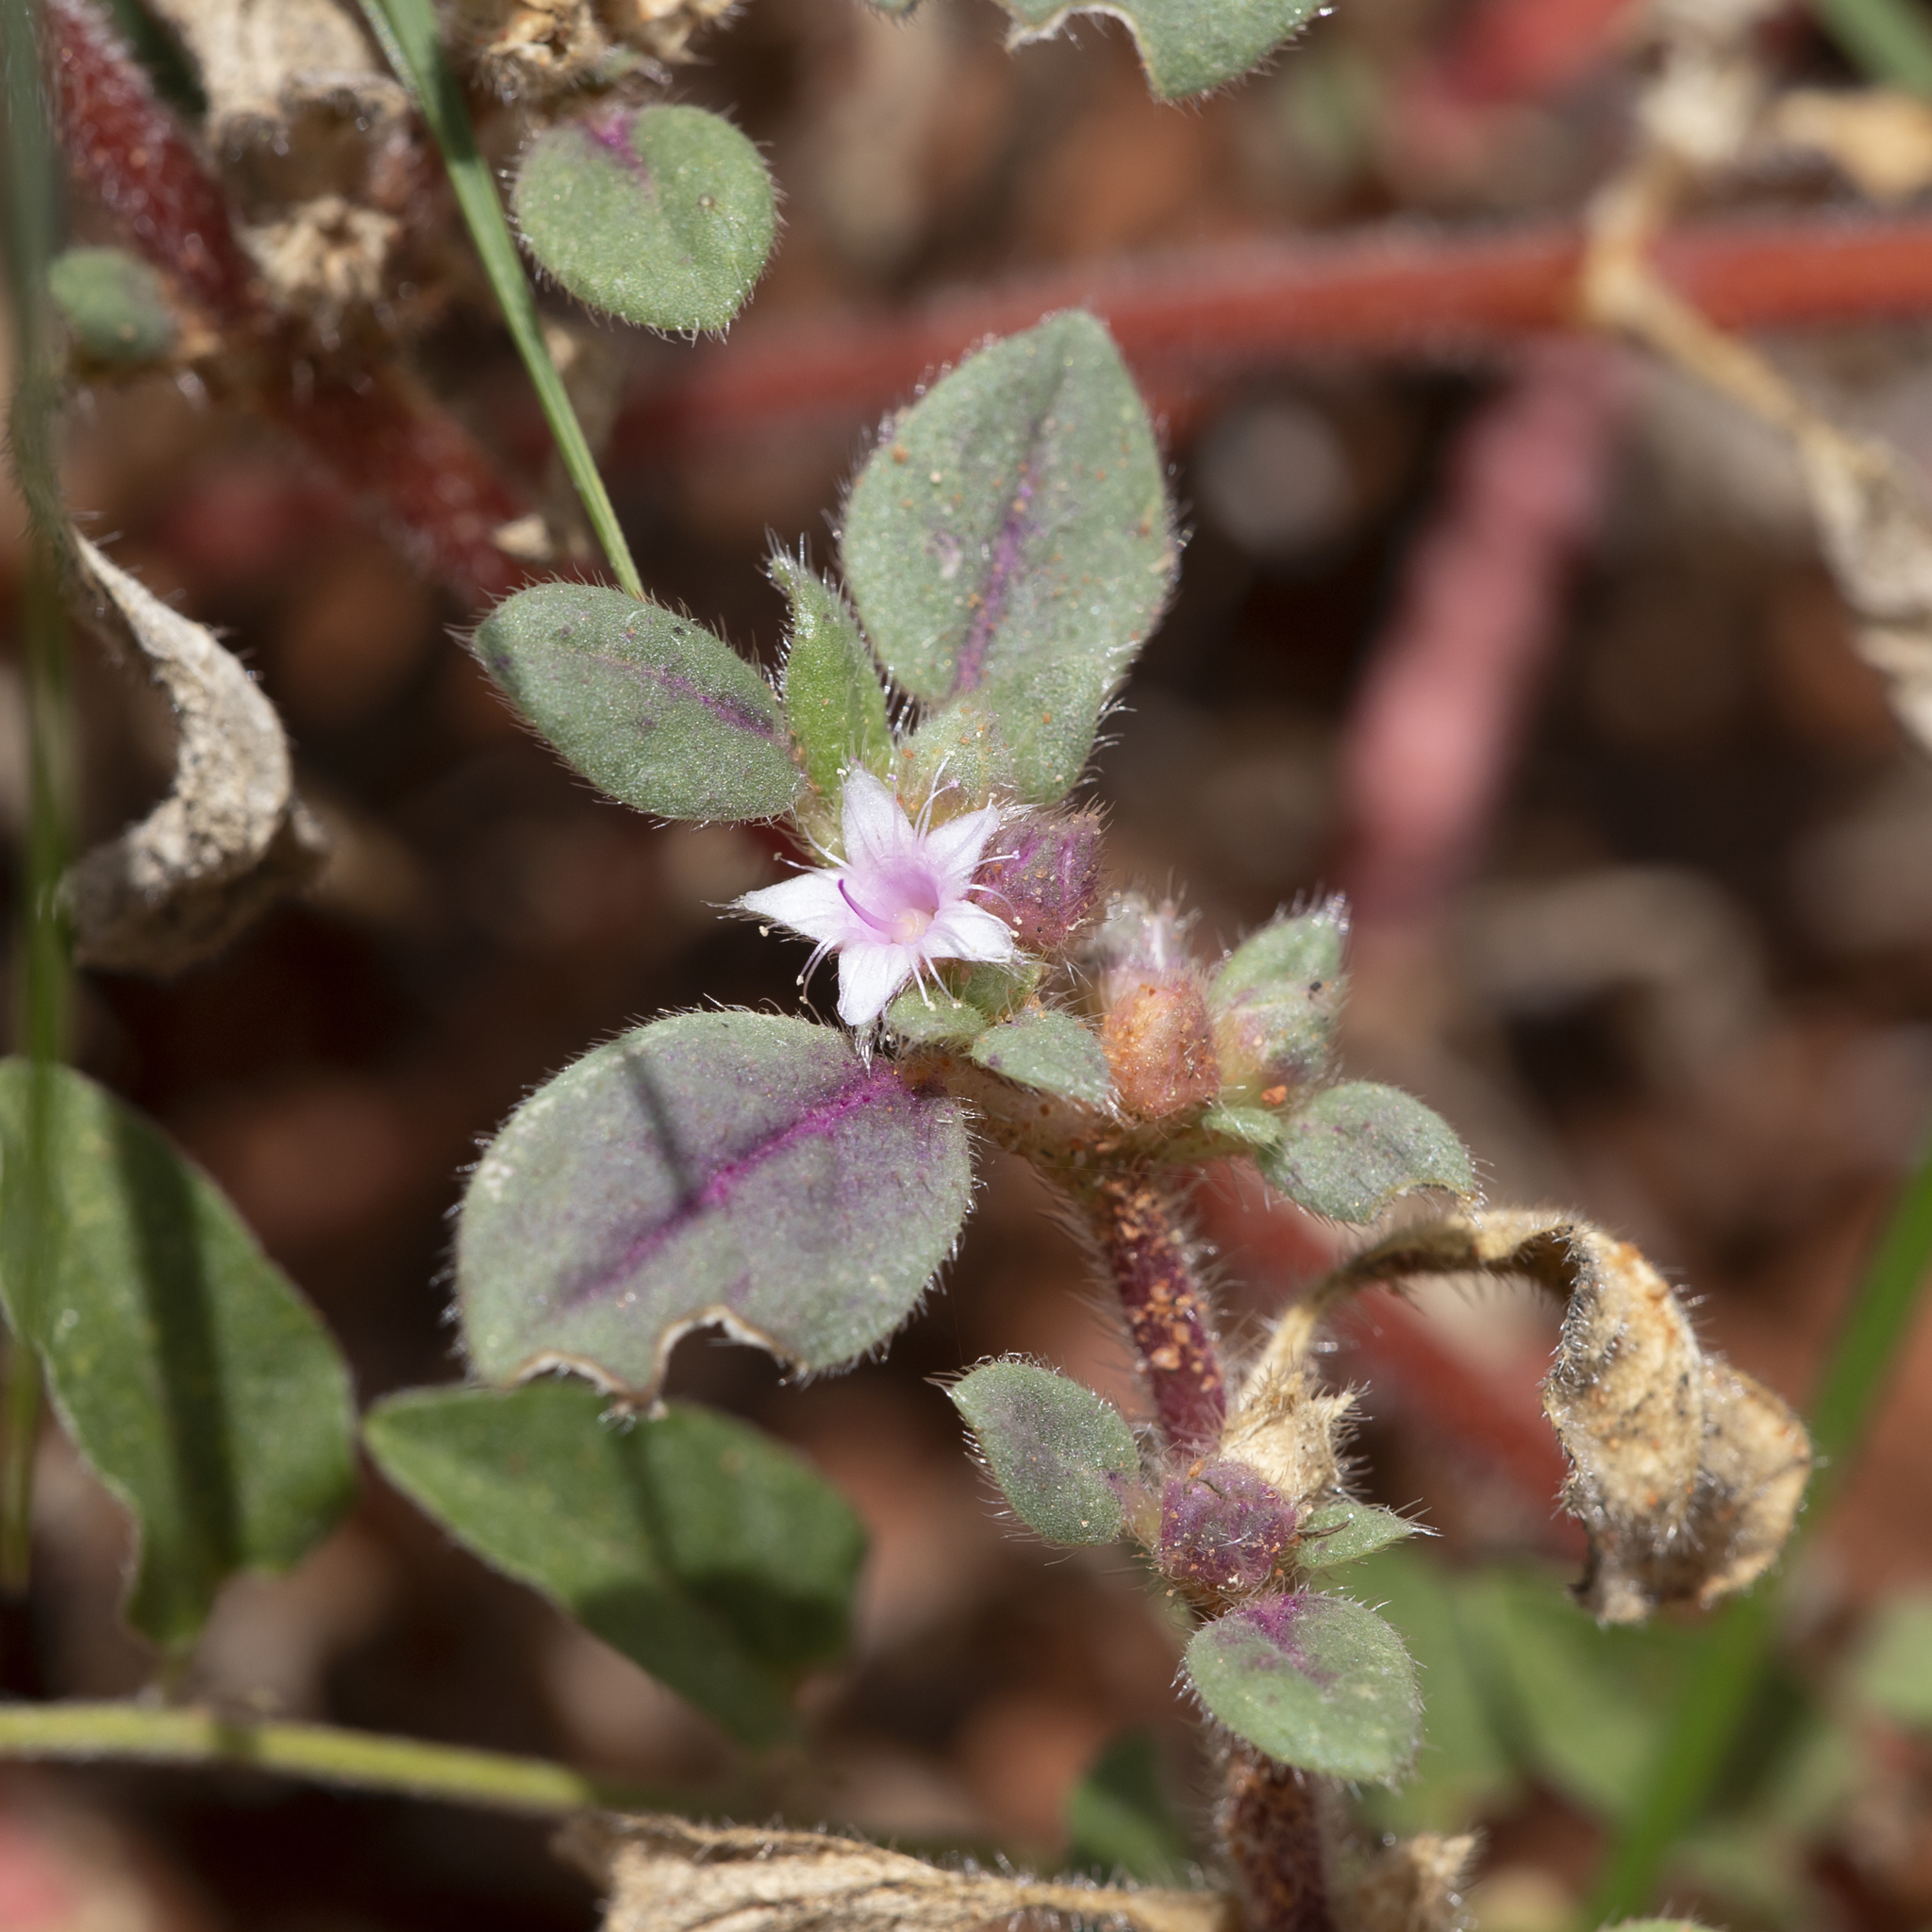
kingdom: Plantae
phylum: Tracheophyta
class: Magnoliopsida
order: Caryophyllales
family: Aizoaceae
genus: Trianthema
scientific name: Trianthema pilosum
